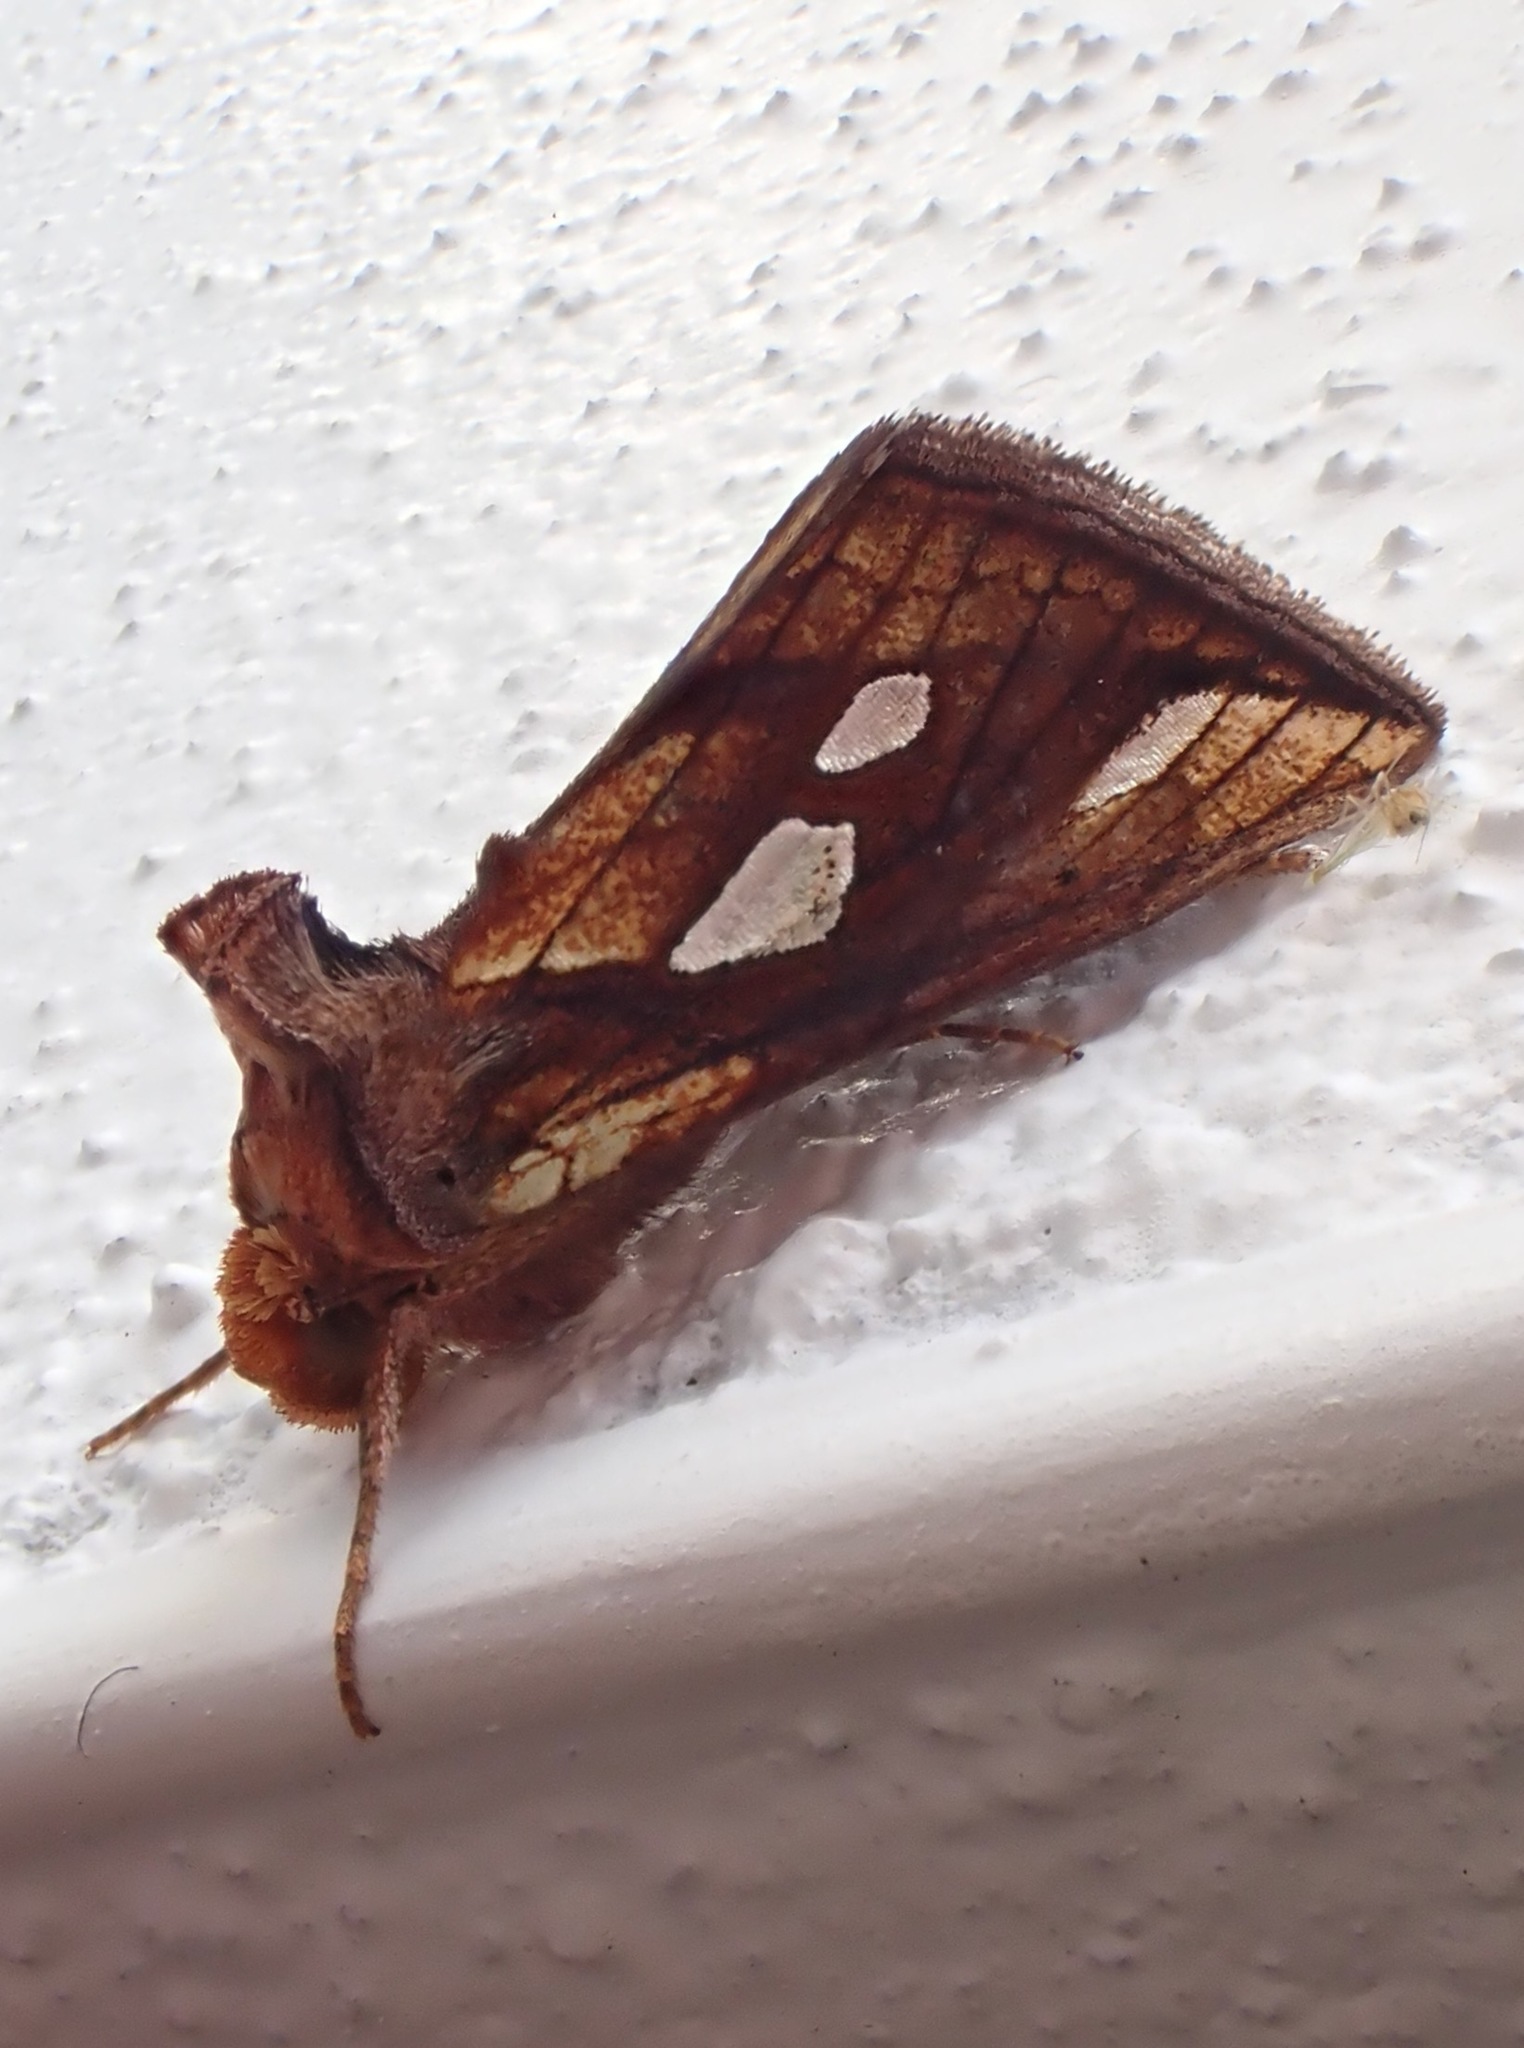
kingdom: Animalia
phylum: Arthropoda
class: Insecta
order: Lepidoptera
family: Noctuidae
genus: Plusia
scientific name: Plusia festucae
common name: Gold spot
